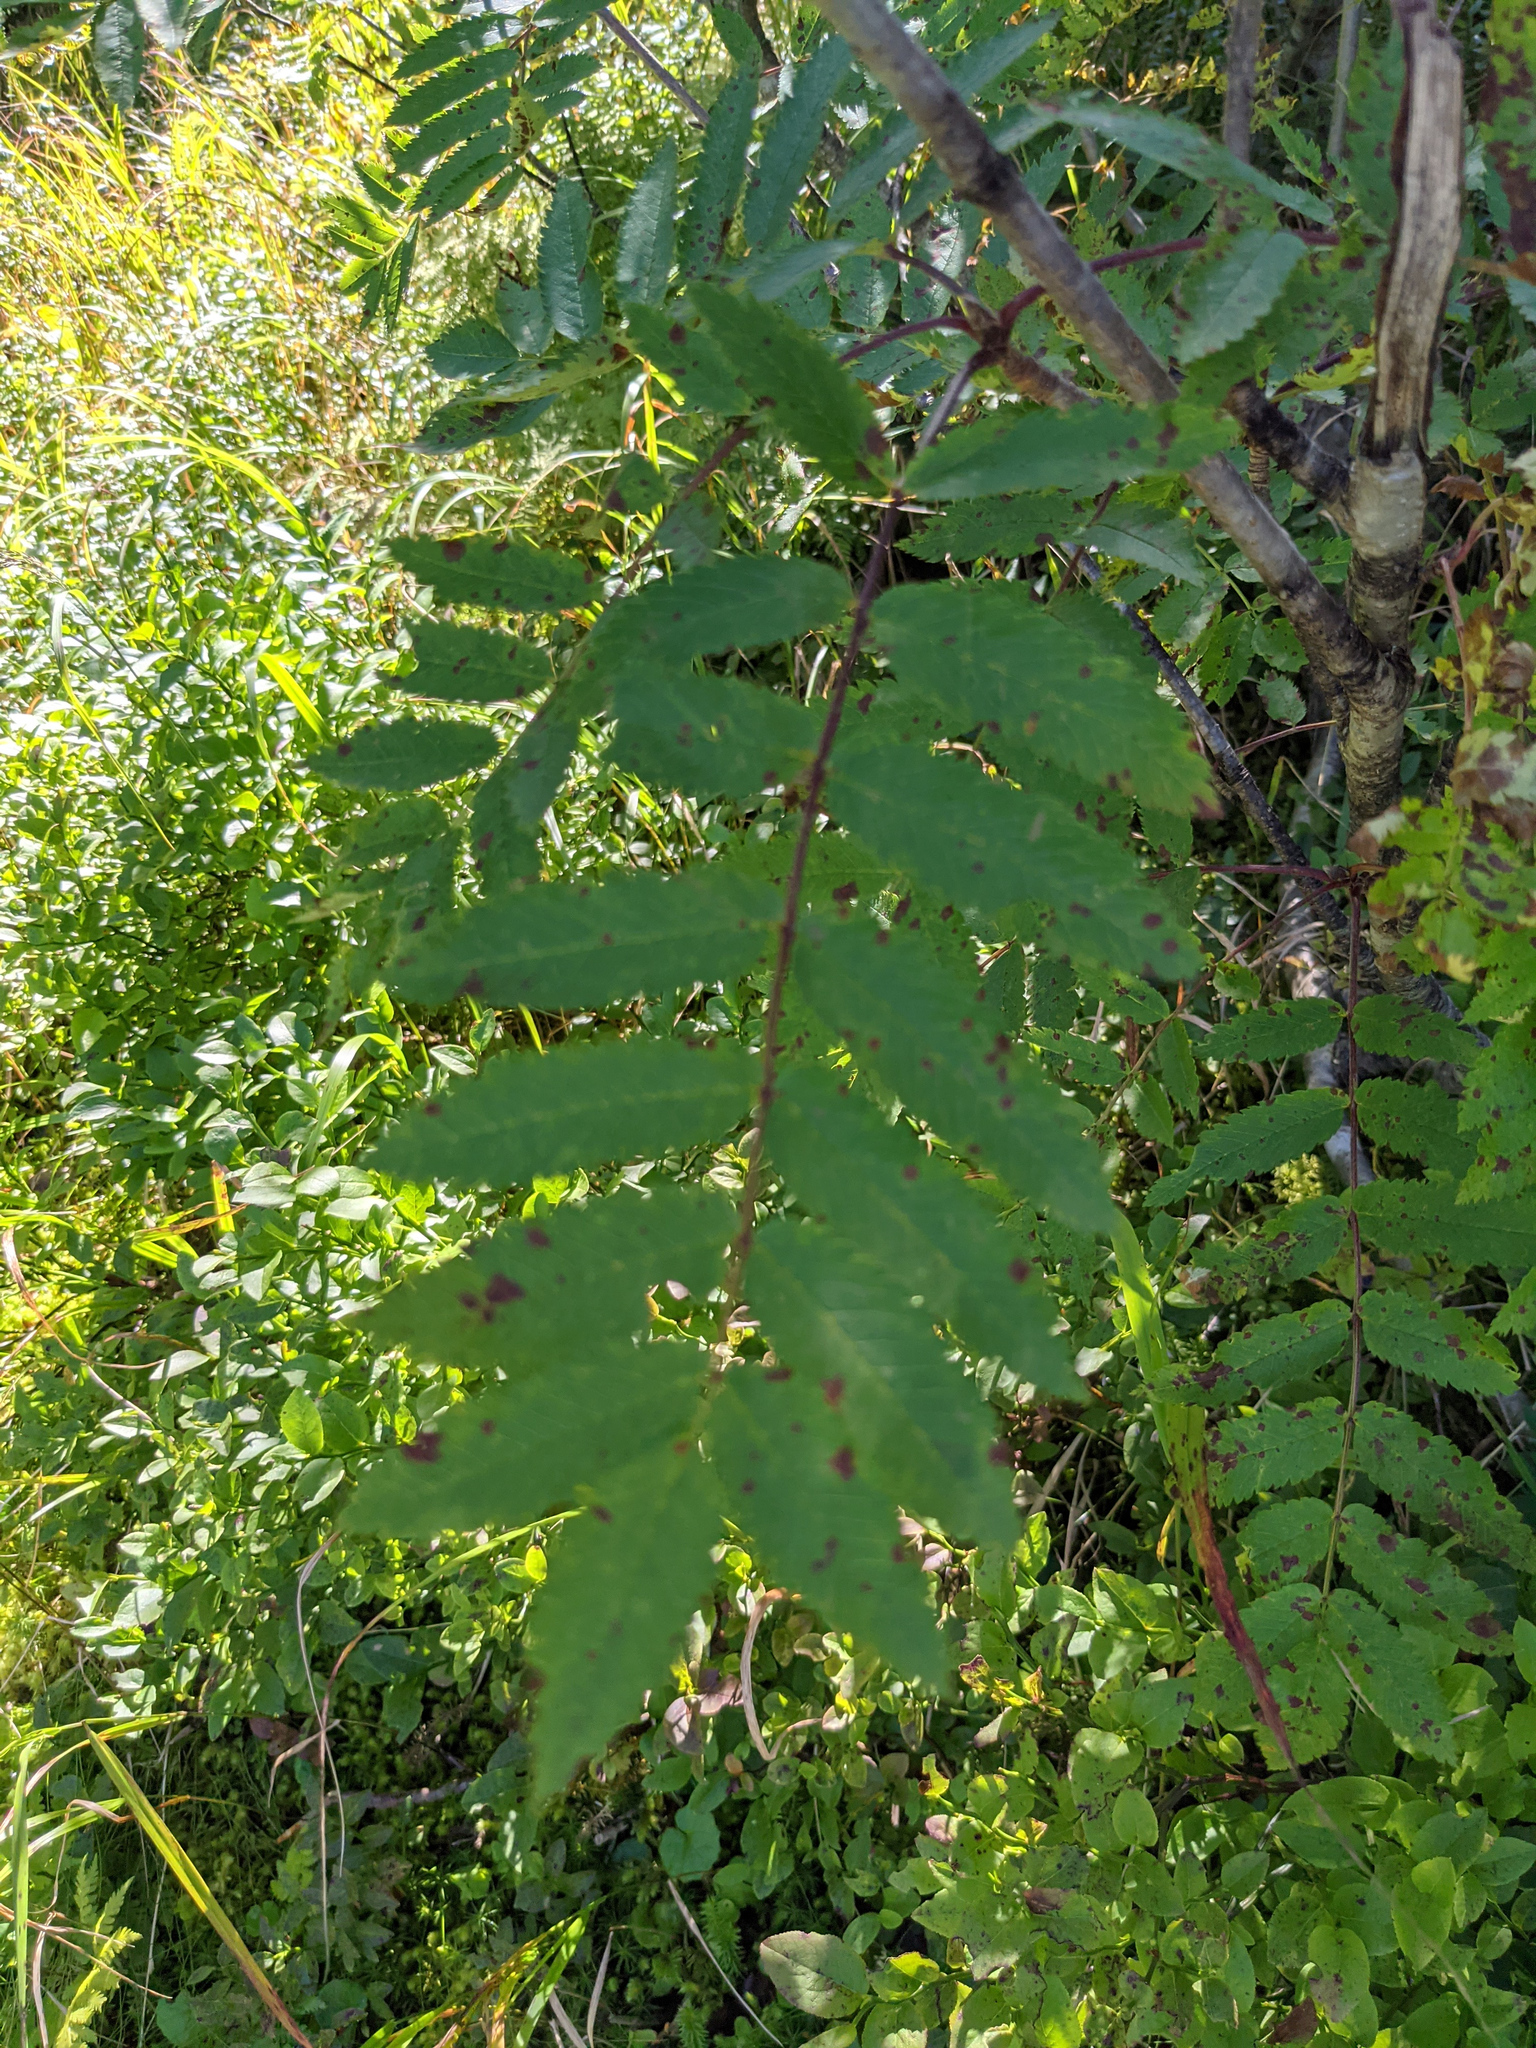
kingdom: Plantae
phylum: Tracheophyta
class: Magnoliopsida
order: Rosales
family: Rosaceae
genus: Sorbus
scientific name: Sorbus aucuparia
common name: Rowan
